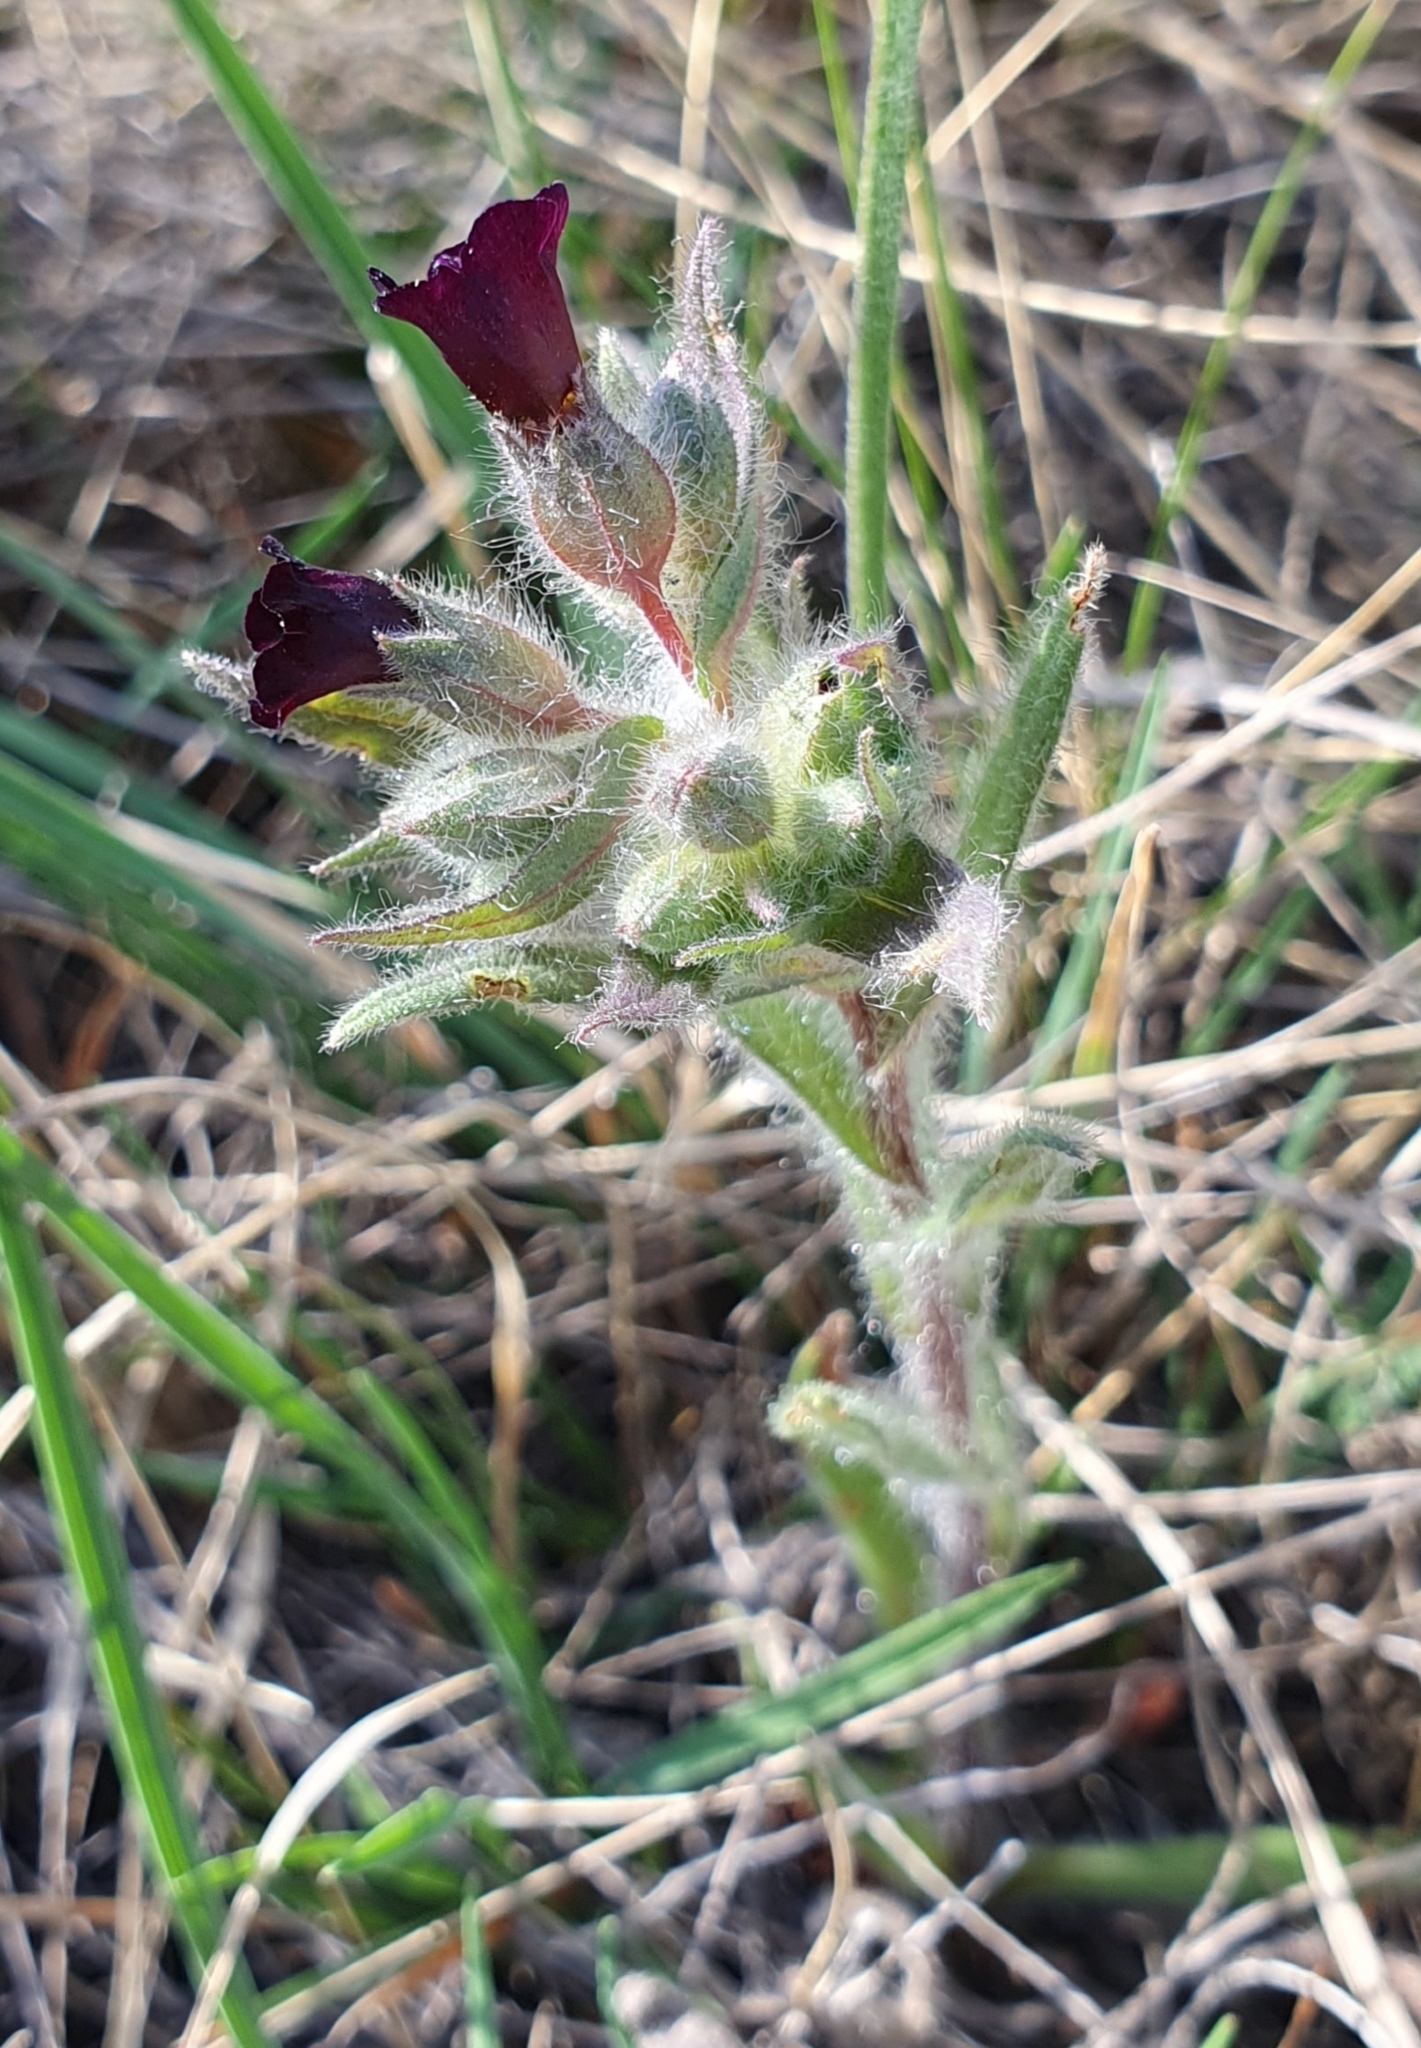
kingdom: Plantae
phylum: Tracheophyta
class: Magnoliopsida
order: Boraginales
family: Boraginaceae
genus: Nonea
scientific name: Nonea pulla
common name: Brown nonea
